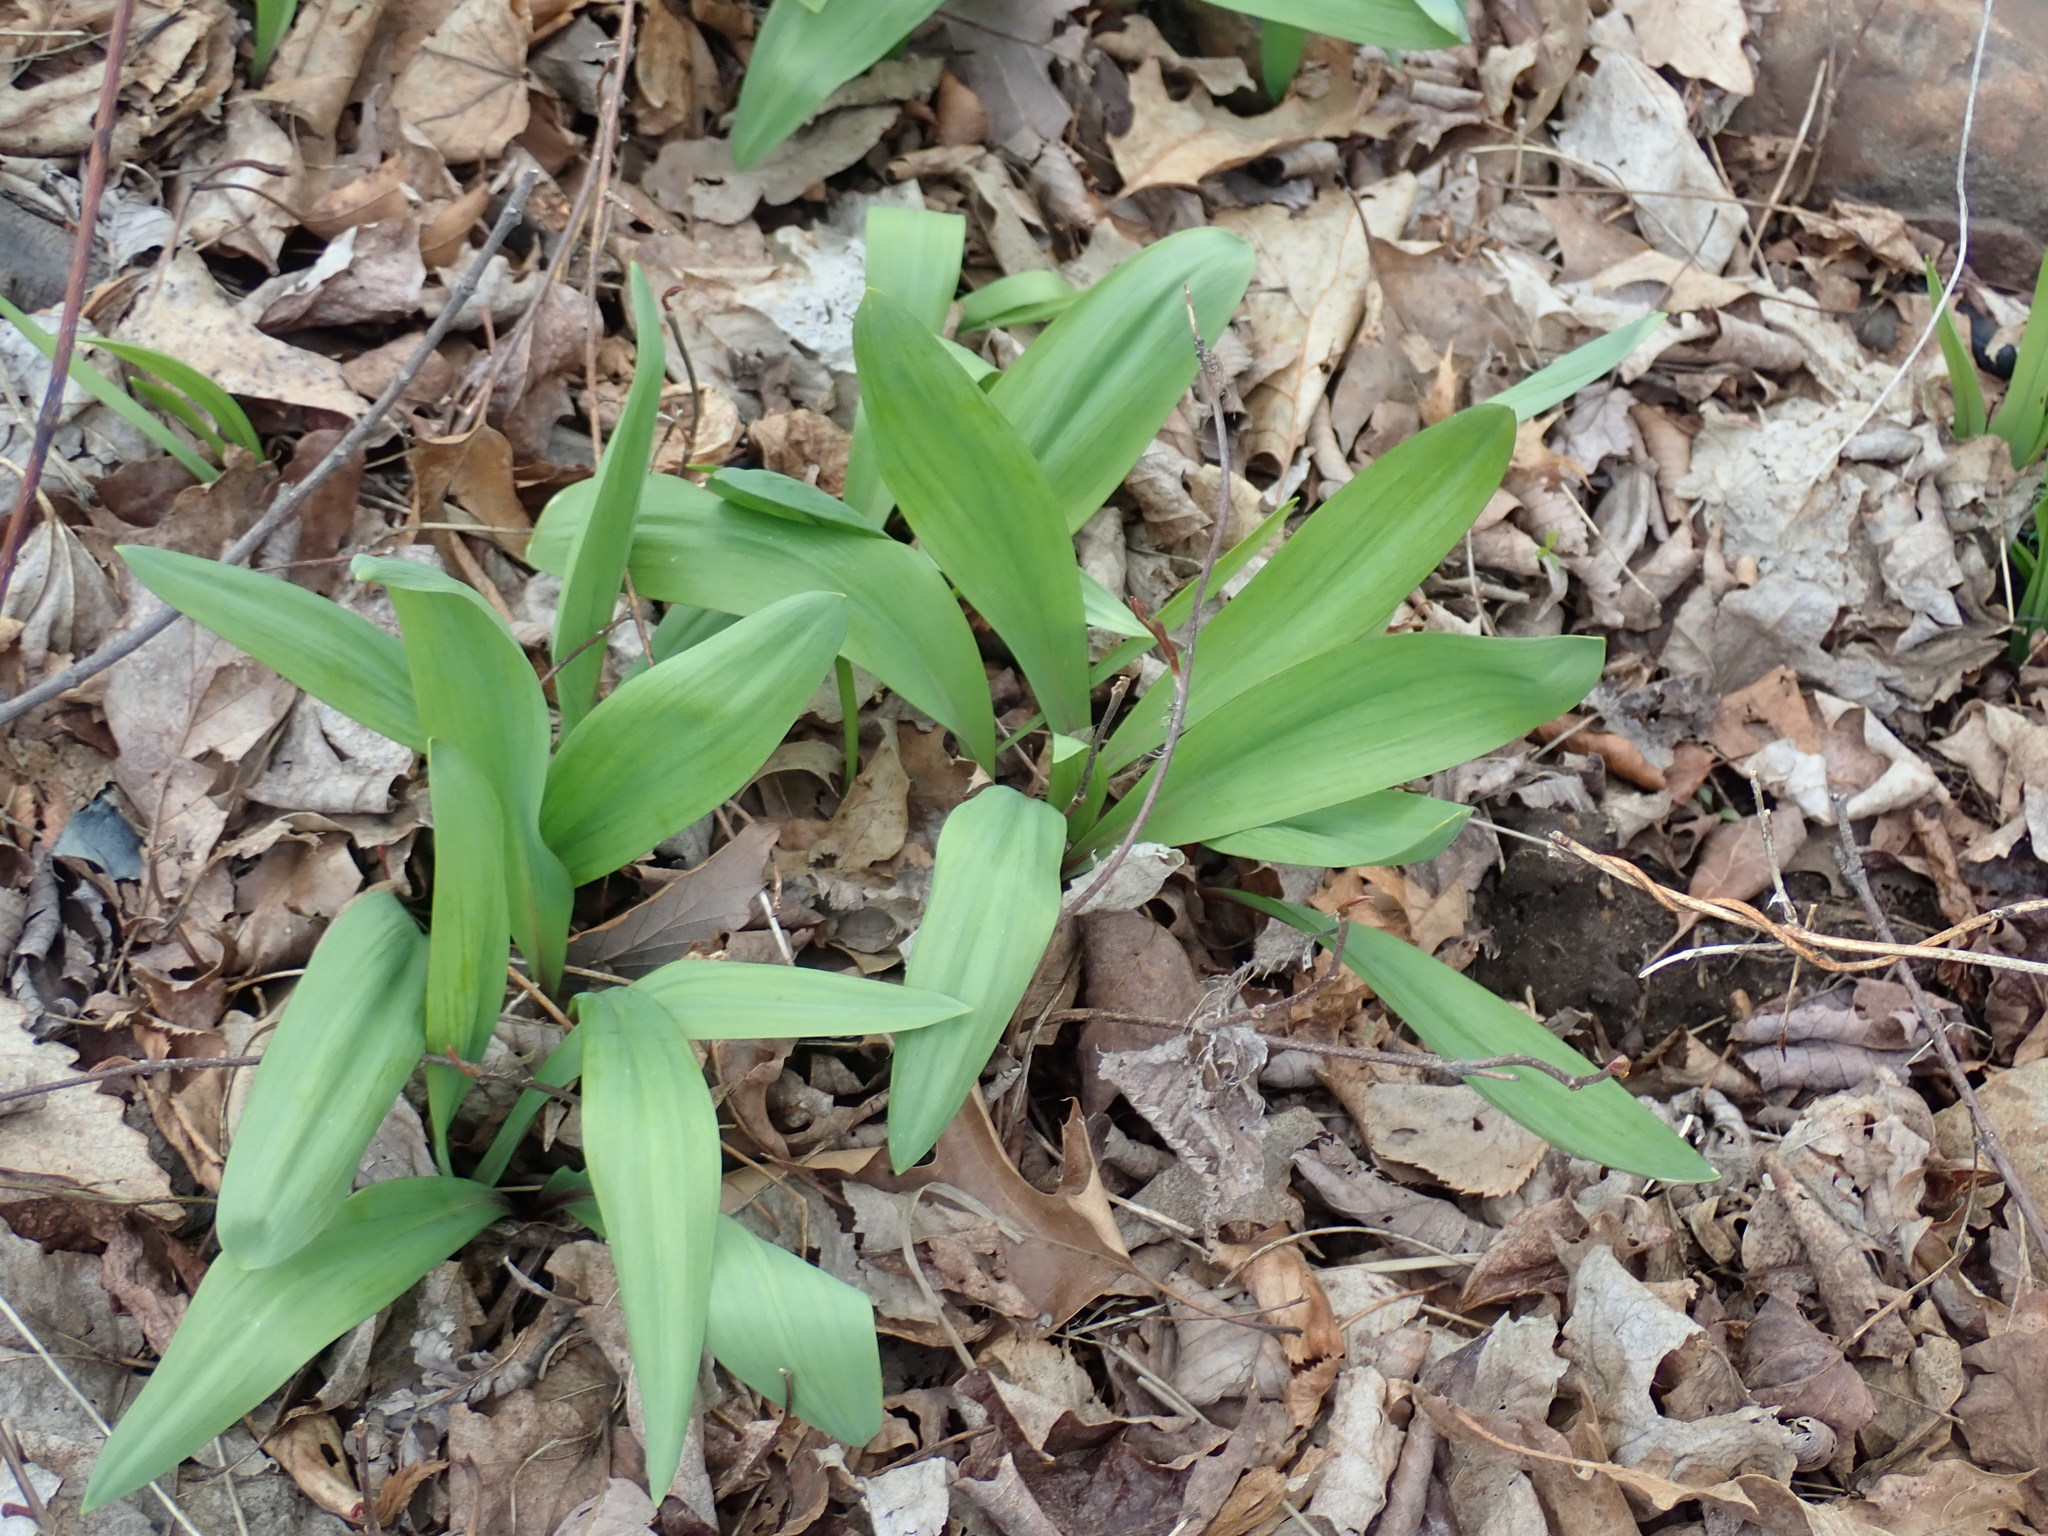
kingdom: Plantae
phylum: Tracheophyta
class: Liliopsida
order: Asparagales
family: Amaryllidaceae
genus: Allium
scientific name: Allium tricoccum
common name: Ramp
